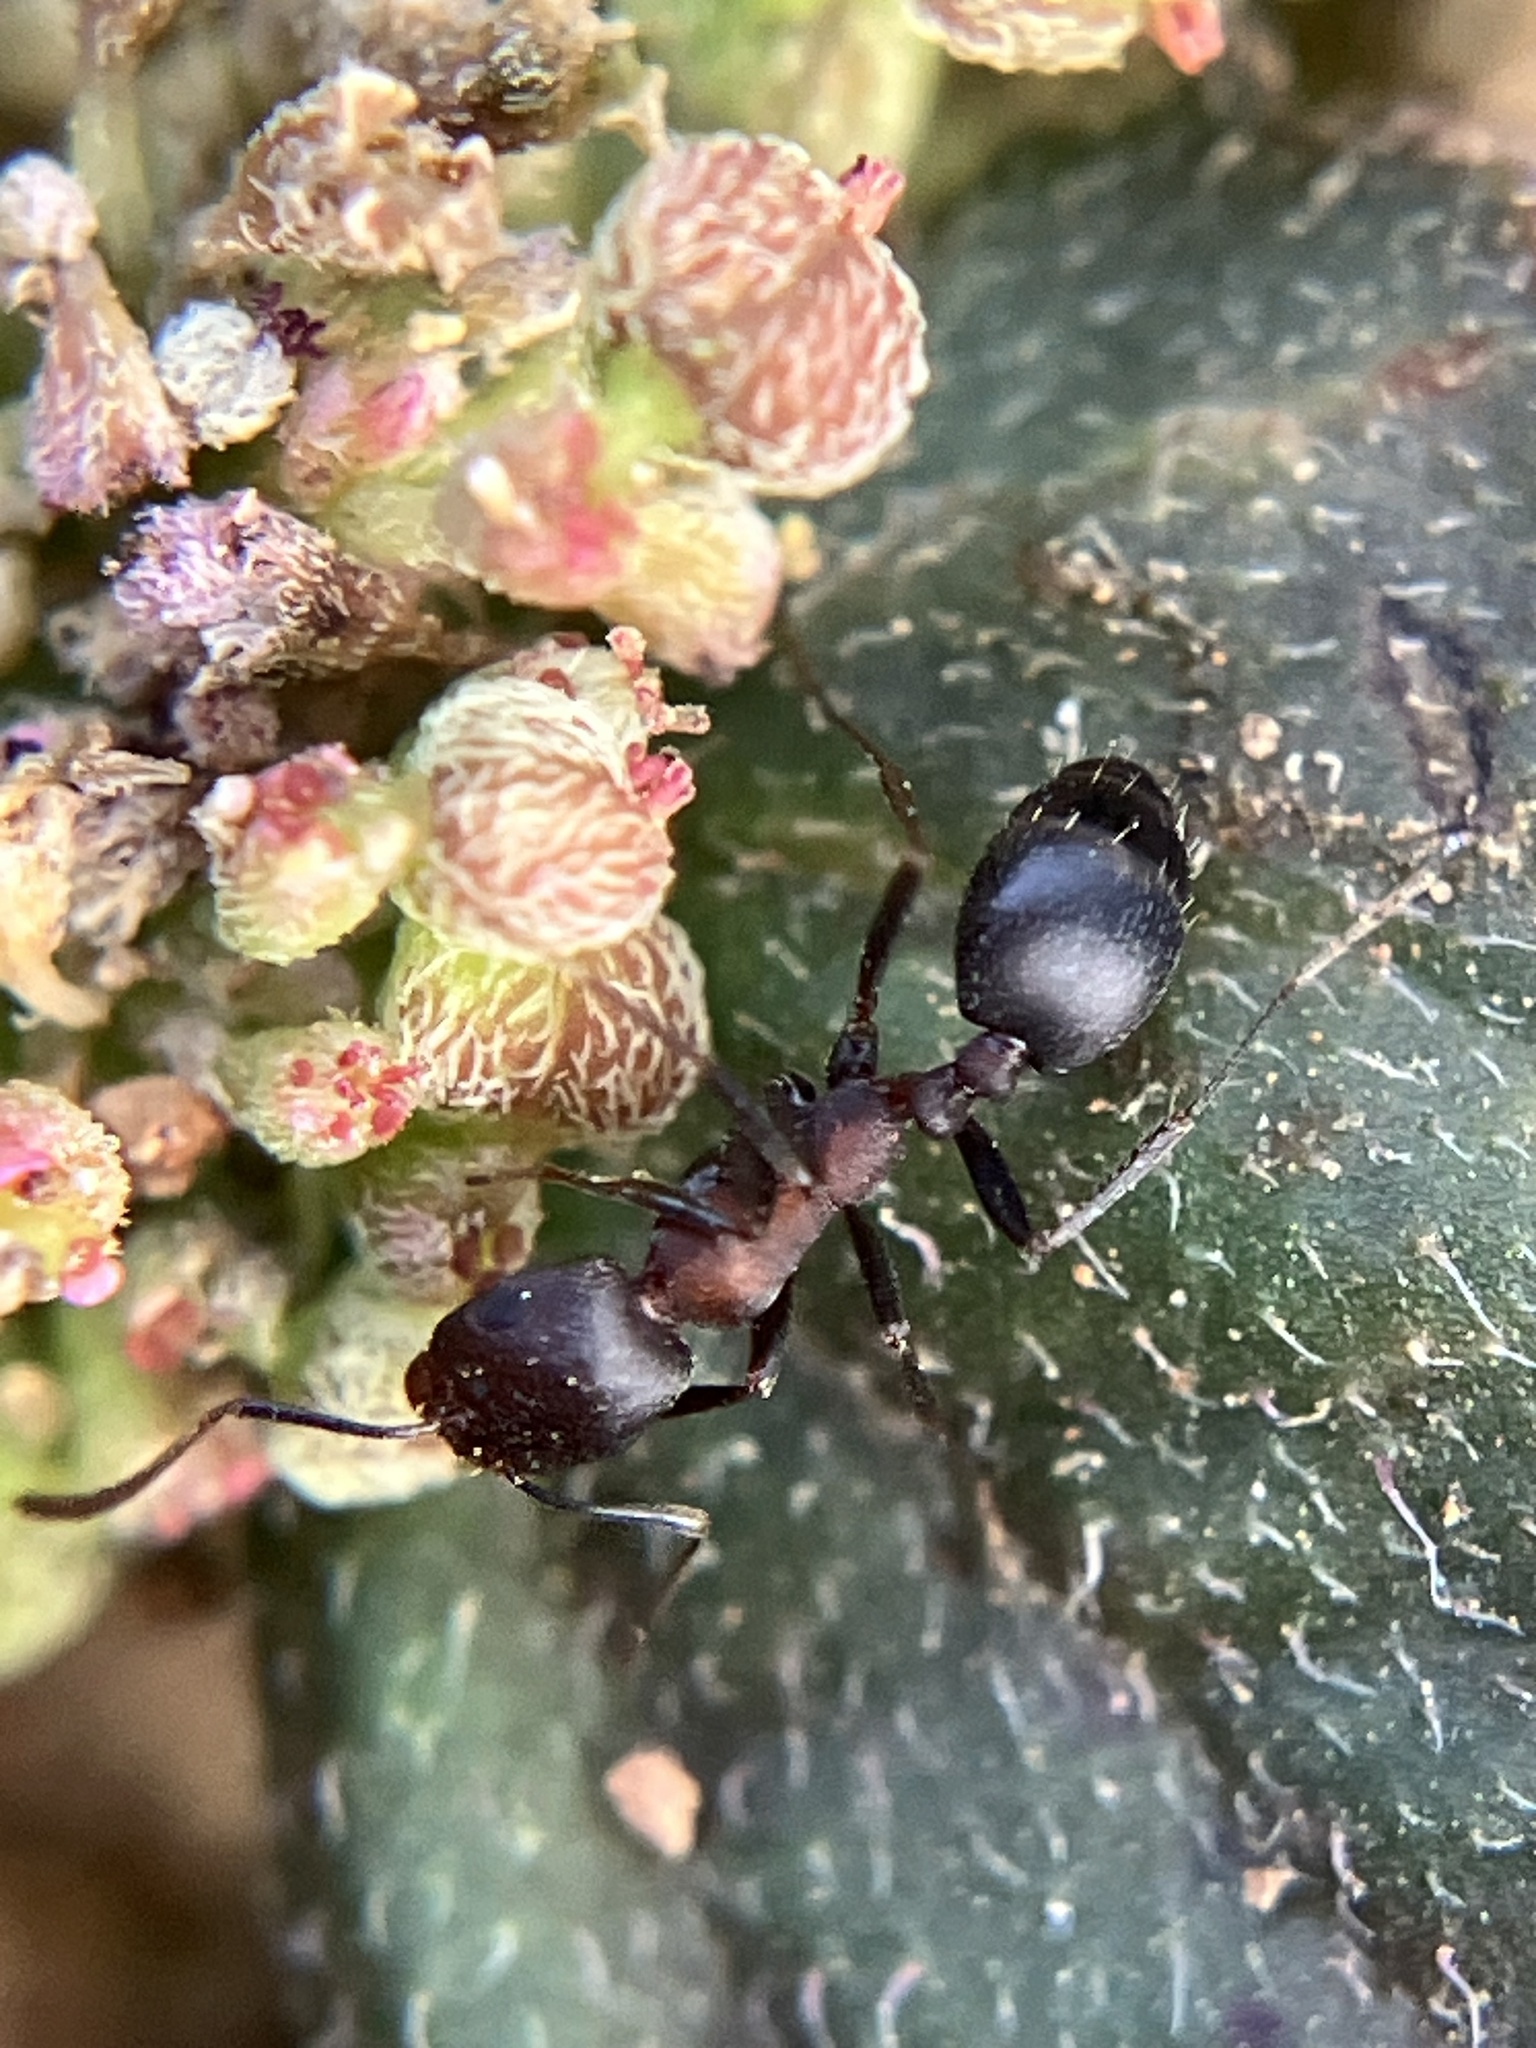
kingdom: Animalia
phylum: Arthropoda
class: Insecta
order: Hymenoptera
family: Formicidae
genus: Monomorium
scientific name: Monomorium indicum
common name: Ant
